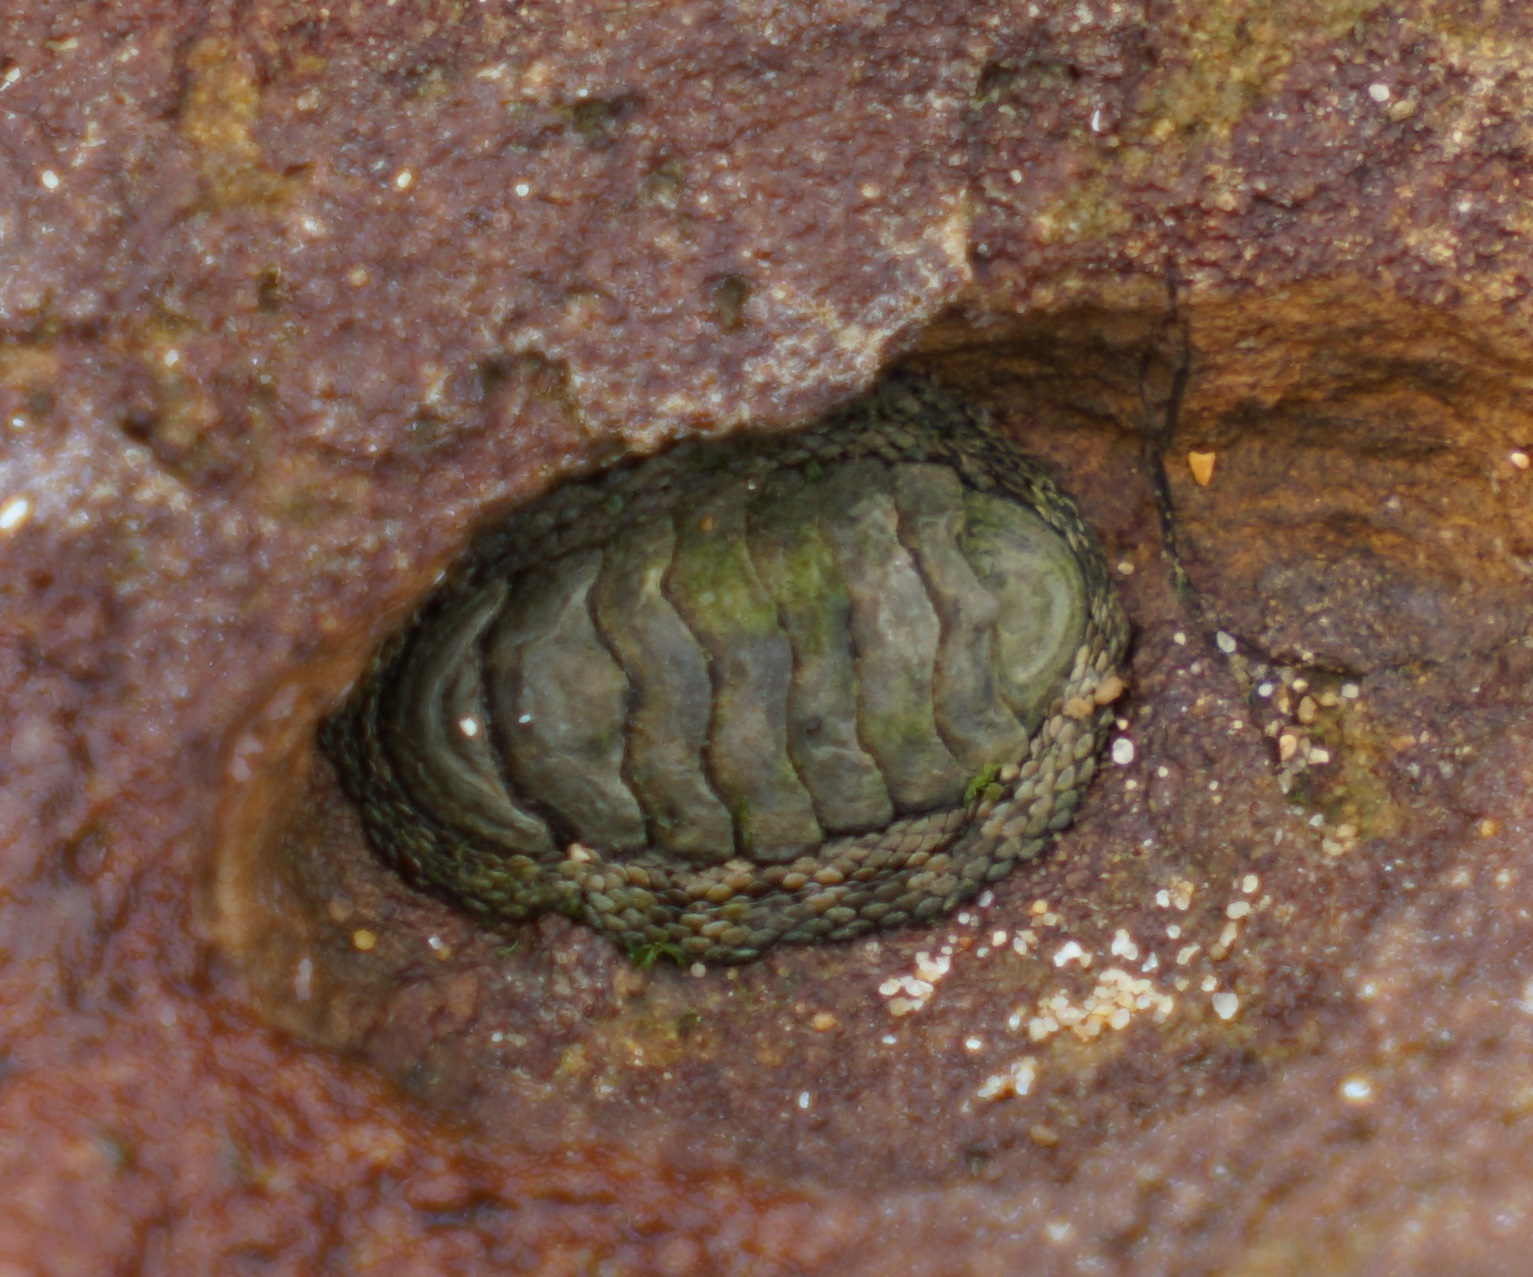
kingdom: Animalia
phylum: Mollusca
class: Polyplacophora
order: Chitonida
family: Chitonidae
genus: Sypharochiton
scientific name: Sypharochiton pelliserpentis
